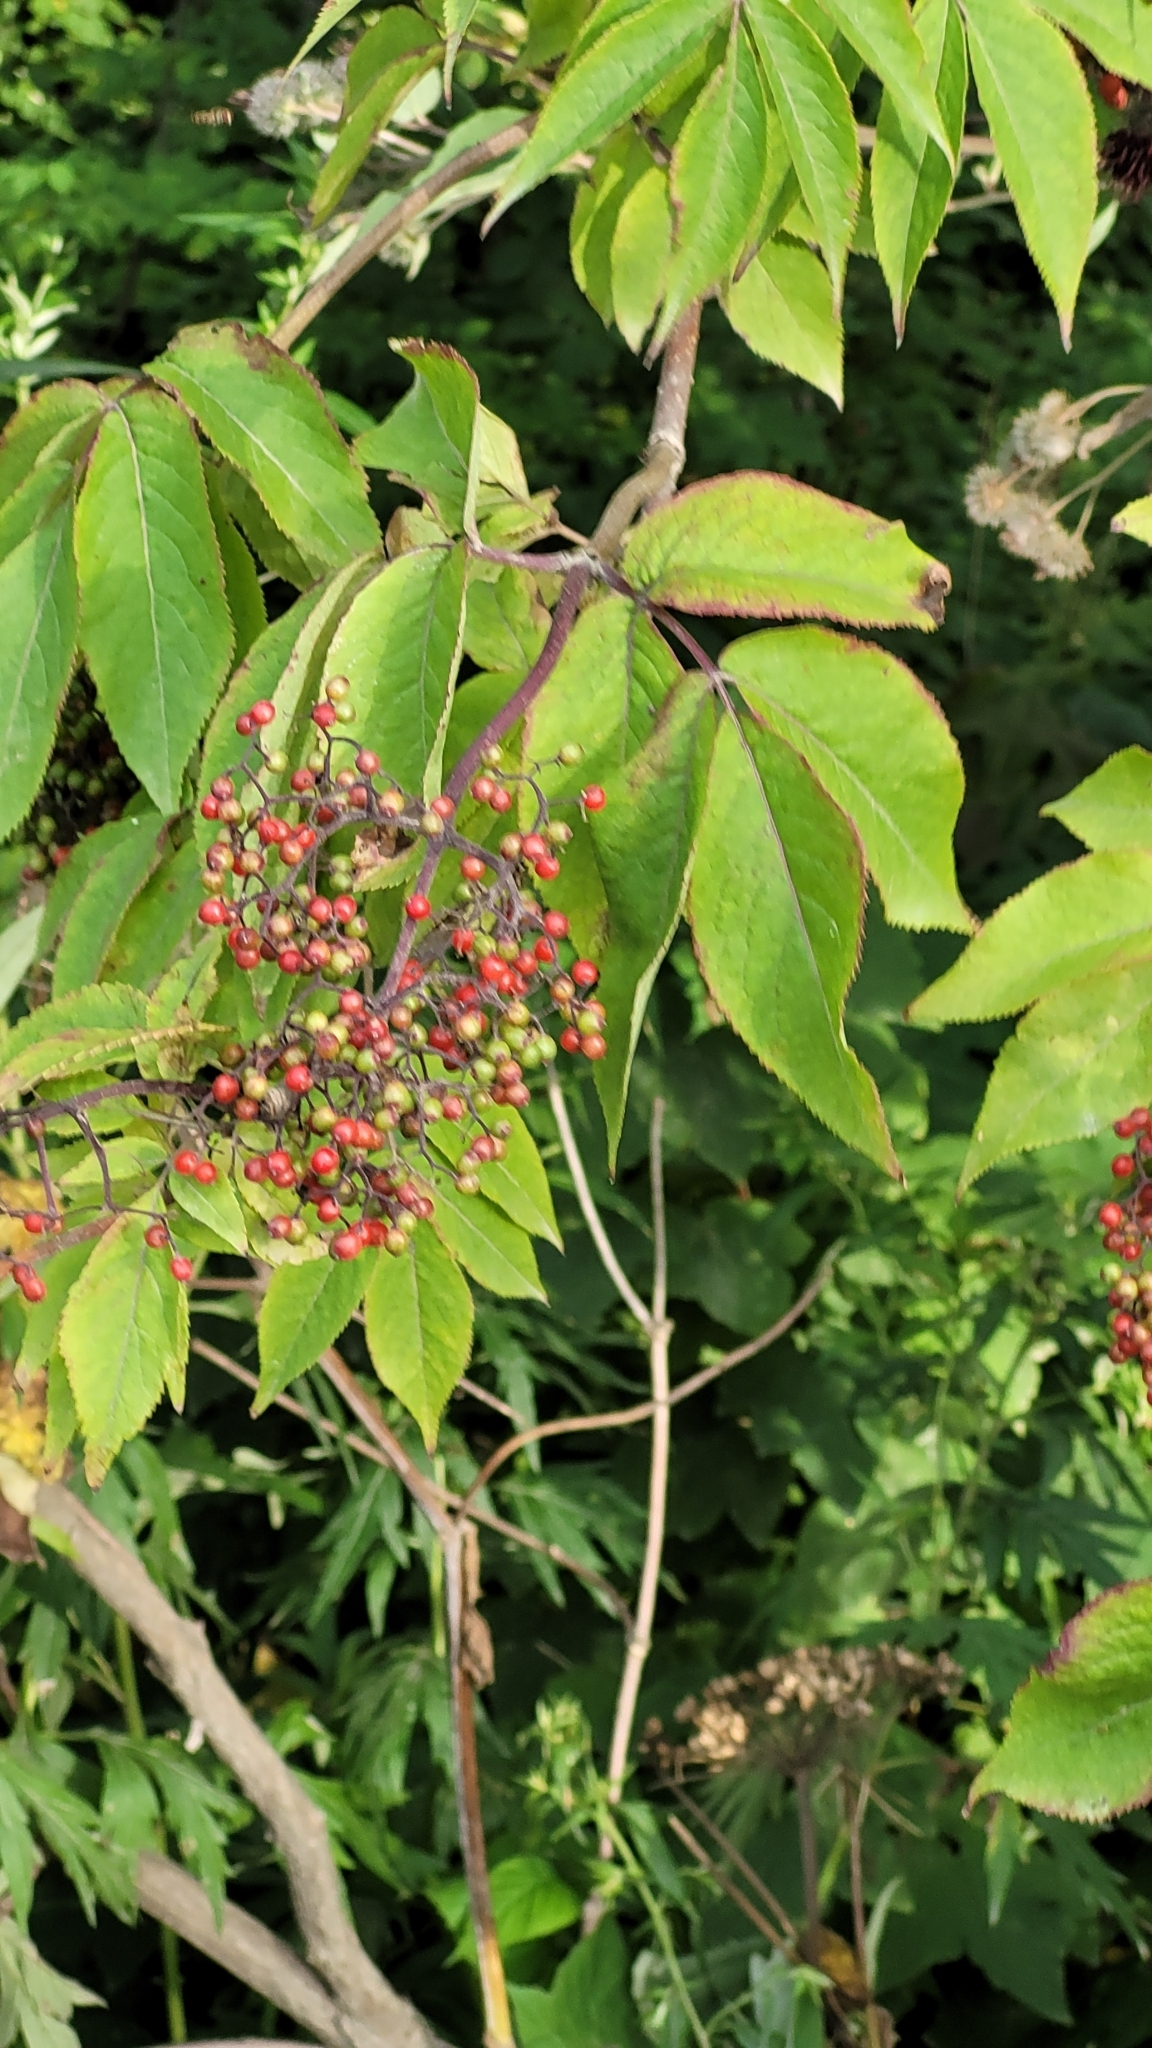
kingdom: Plantae
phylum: Tracheophyta
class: Magnoliopsida
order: Dipsacales
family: Viburnaceae
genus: Sambucus
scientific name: Sambucus sibirica
